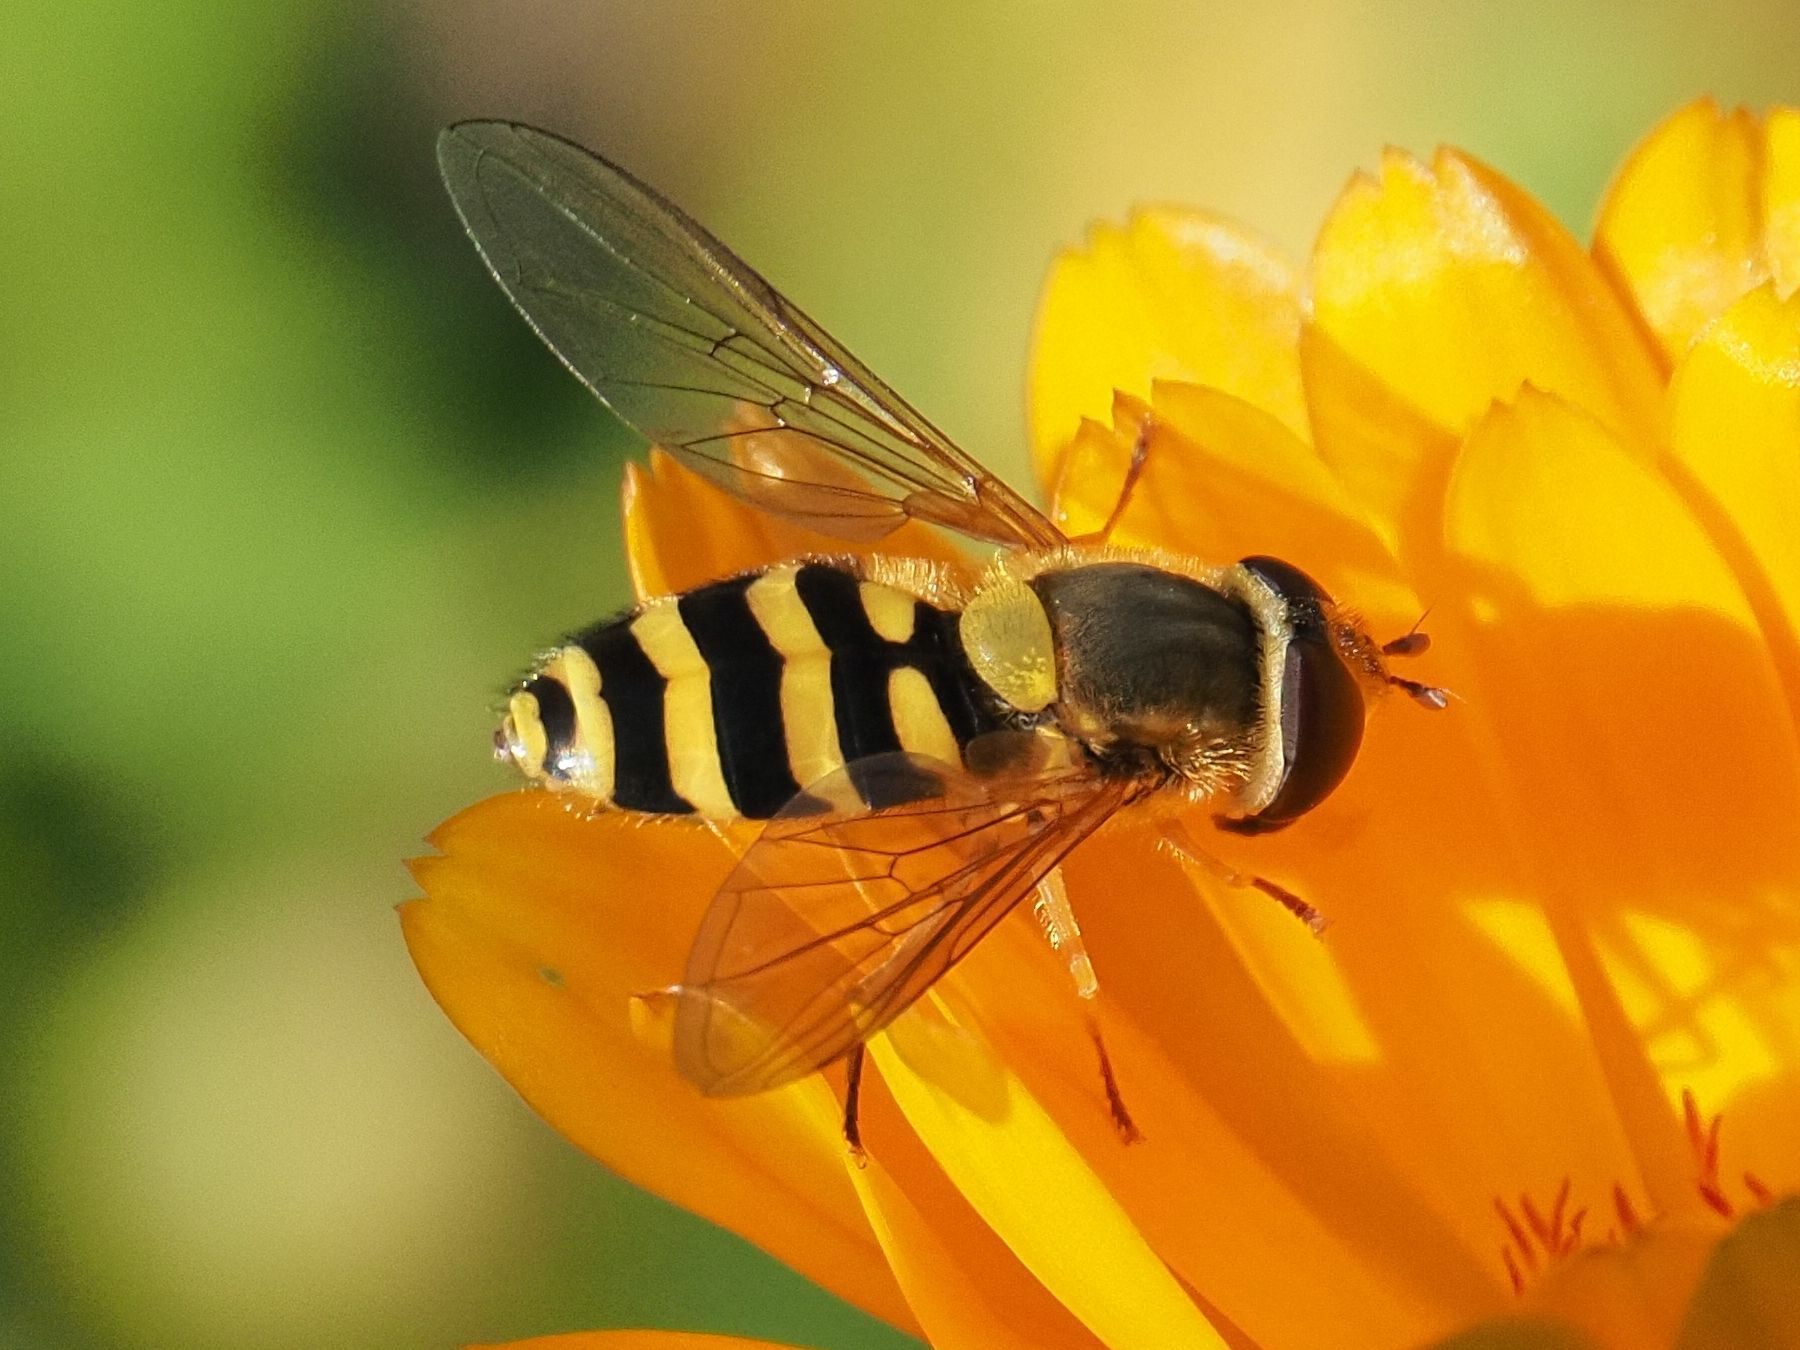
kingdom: Animalia
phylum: Arthropoda
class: Insecta
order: Diptera
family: Syrphidae
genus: Syrphus
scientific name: Syrphus ribesii
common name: Common flower fly
